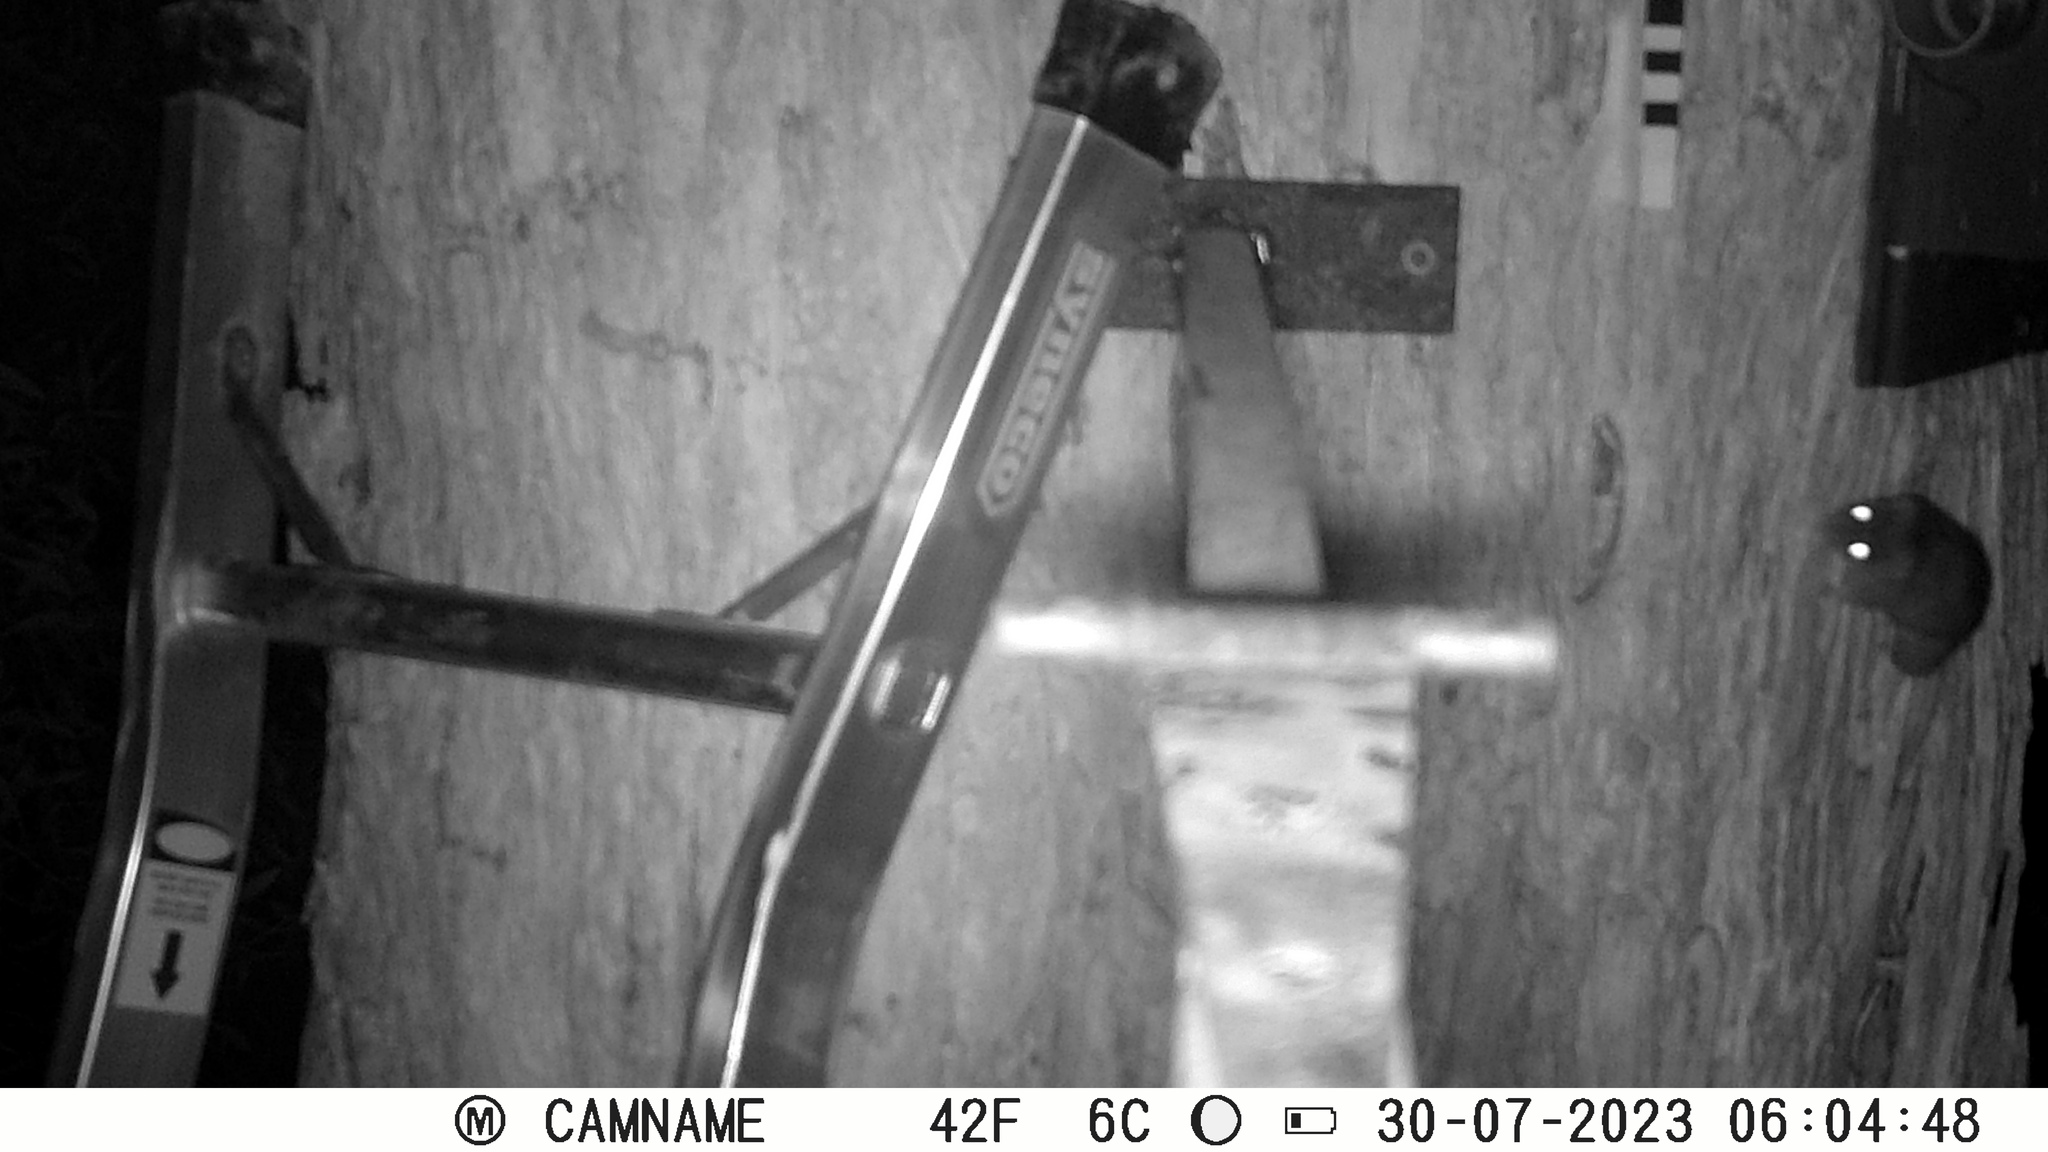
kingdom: Animalia
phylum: Chordata
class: Mammalia
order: Dasyuromorphia
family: Dasyuridae
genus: Antechinus
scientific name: Antechinus agilis
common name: Agile antechinus
